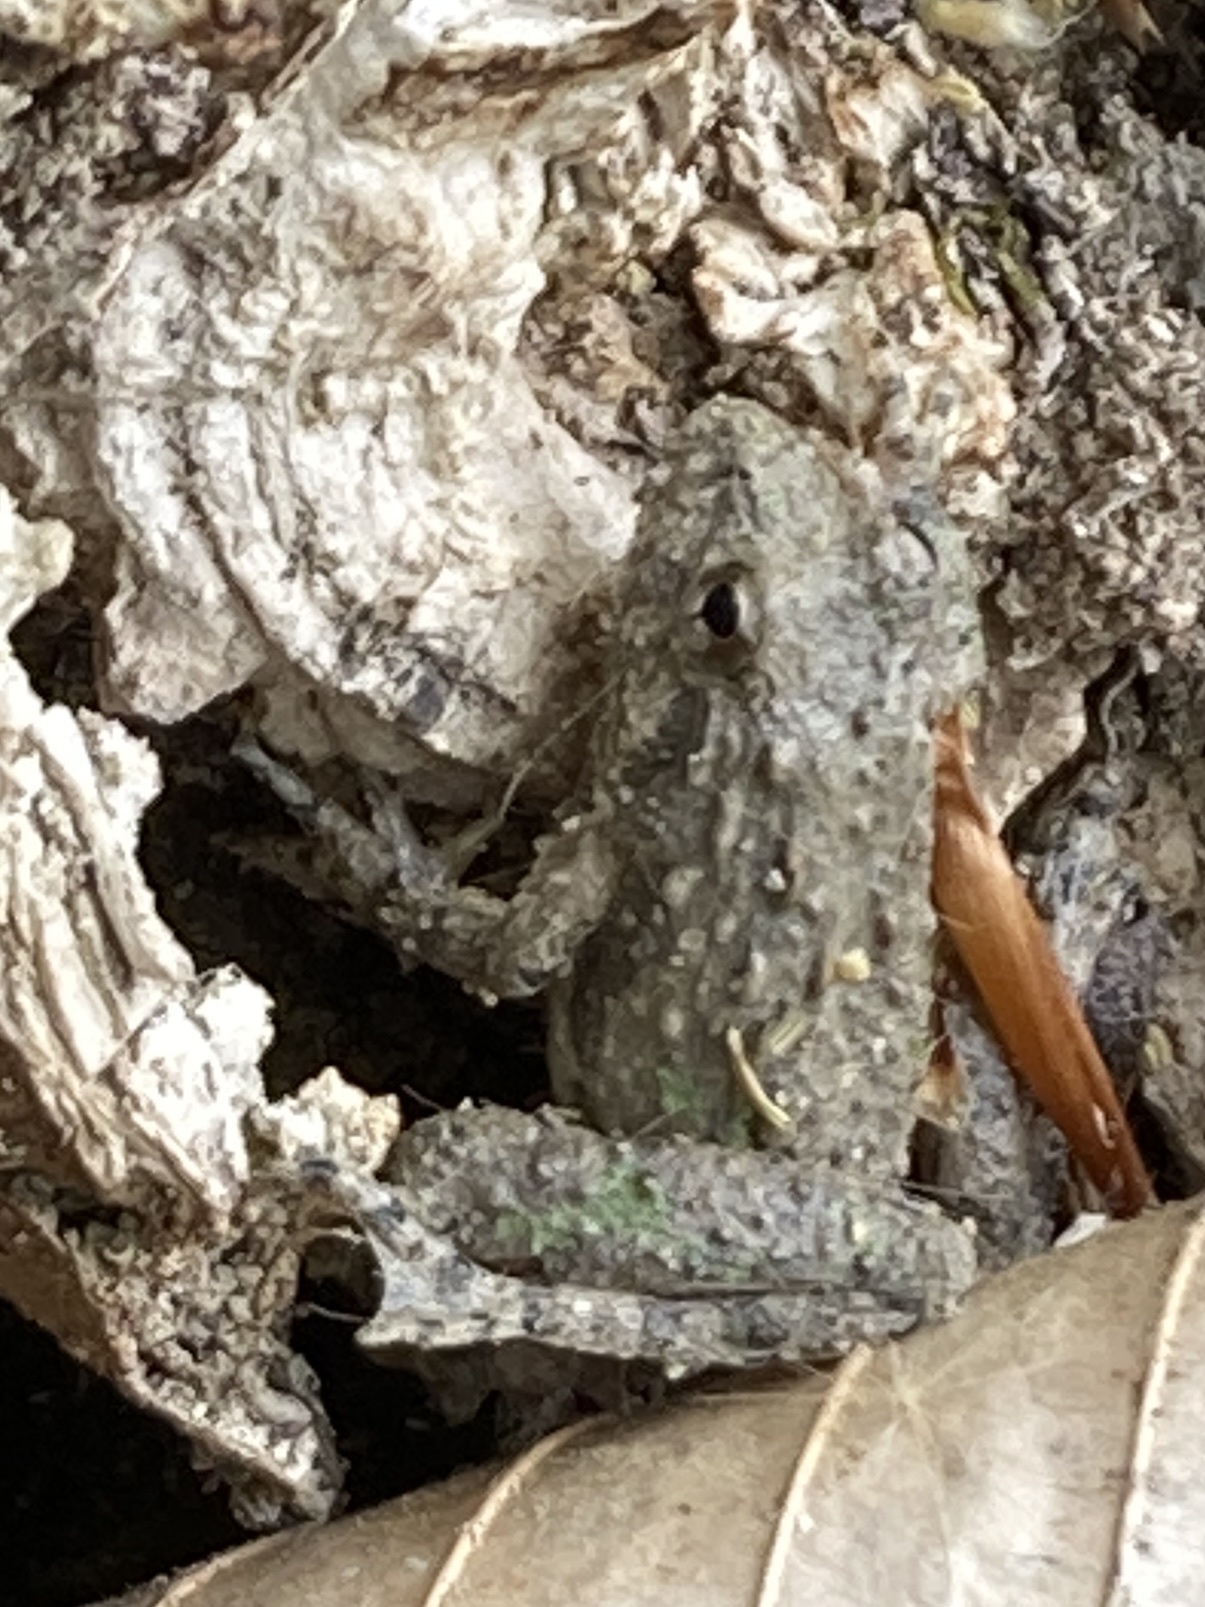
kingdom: Animalia
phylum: Chordata
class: Amphibia
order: Anura
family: Hylidae
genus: Acris
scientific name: Acris blanchardi
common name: Blanchard's cricket frog
